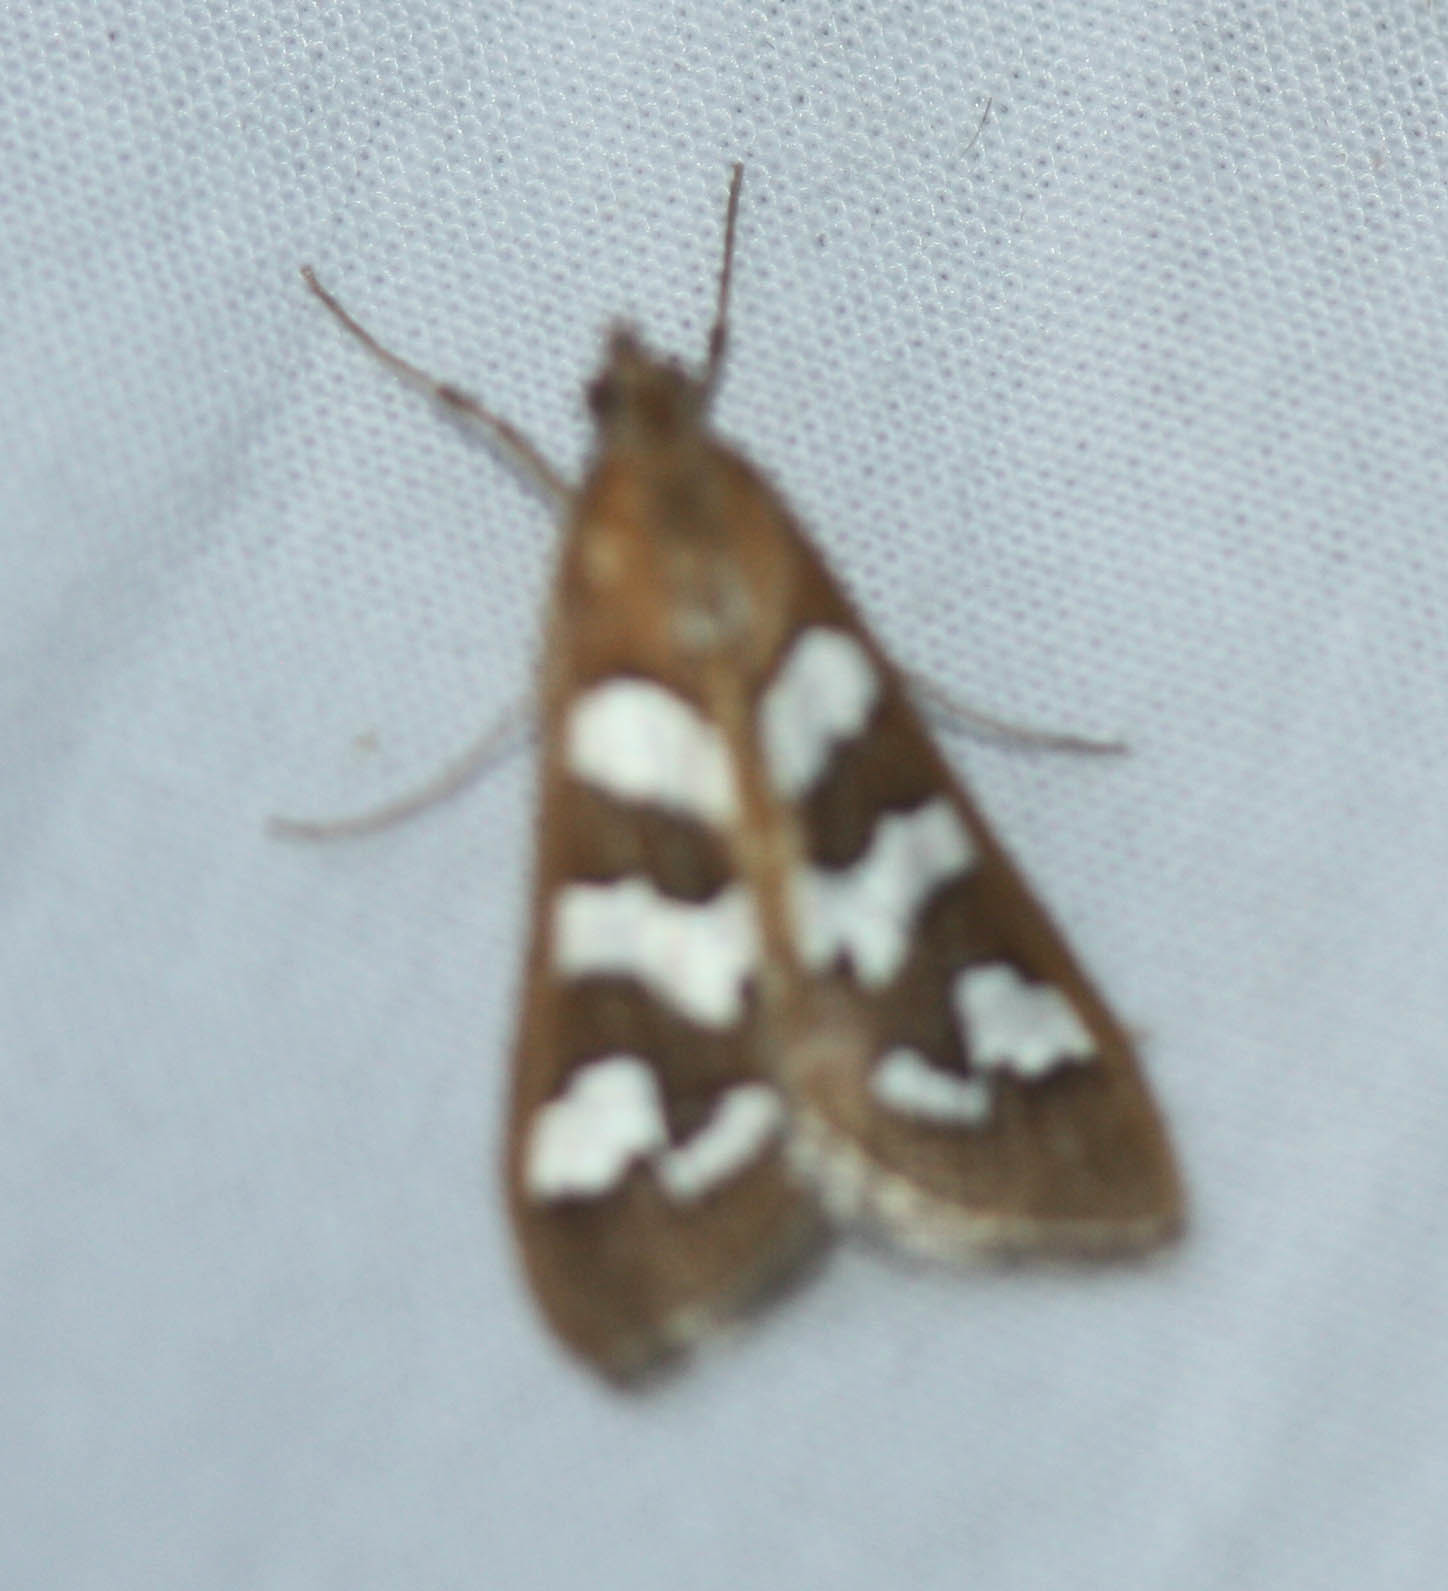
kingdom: Animalia
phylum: Arthropoda
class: Insecta
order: Lepidoptera
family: Crambidae
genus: Diastictis
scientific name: Diastictis fracturalis
